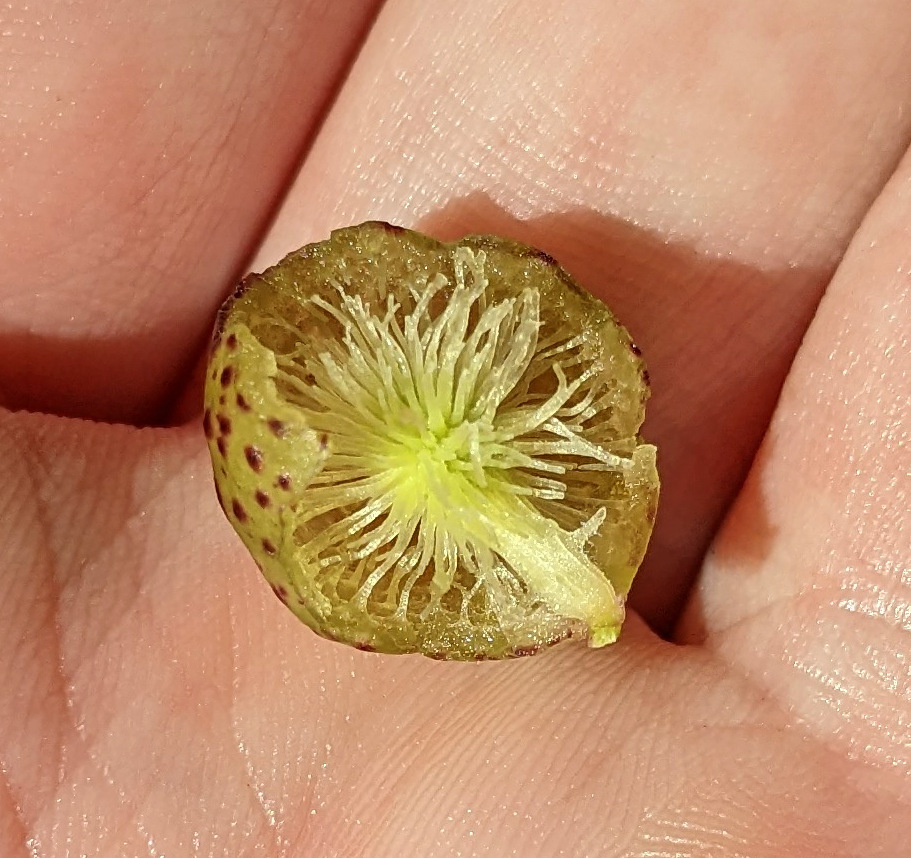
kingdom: Animalia
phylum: Arthropoda
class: Insecta
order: Hymenoptera
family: Cynipidae
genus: Amphibolips
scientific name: Amphibolips
